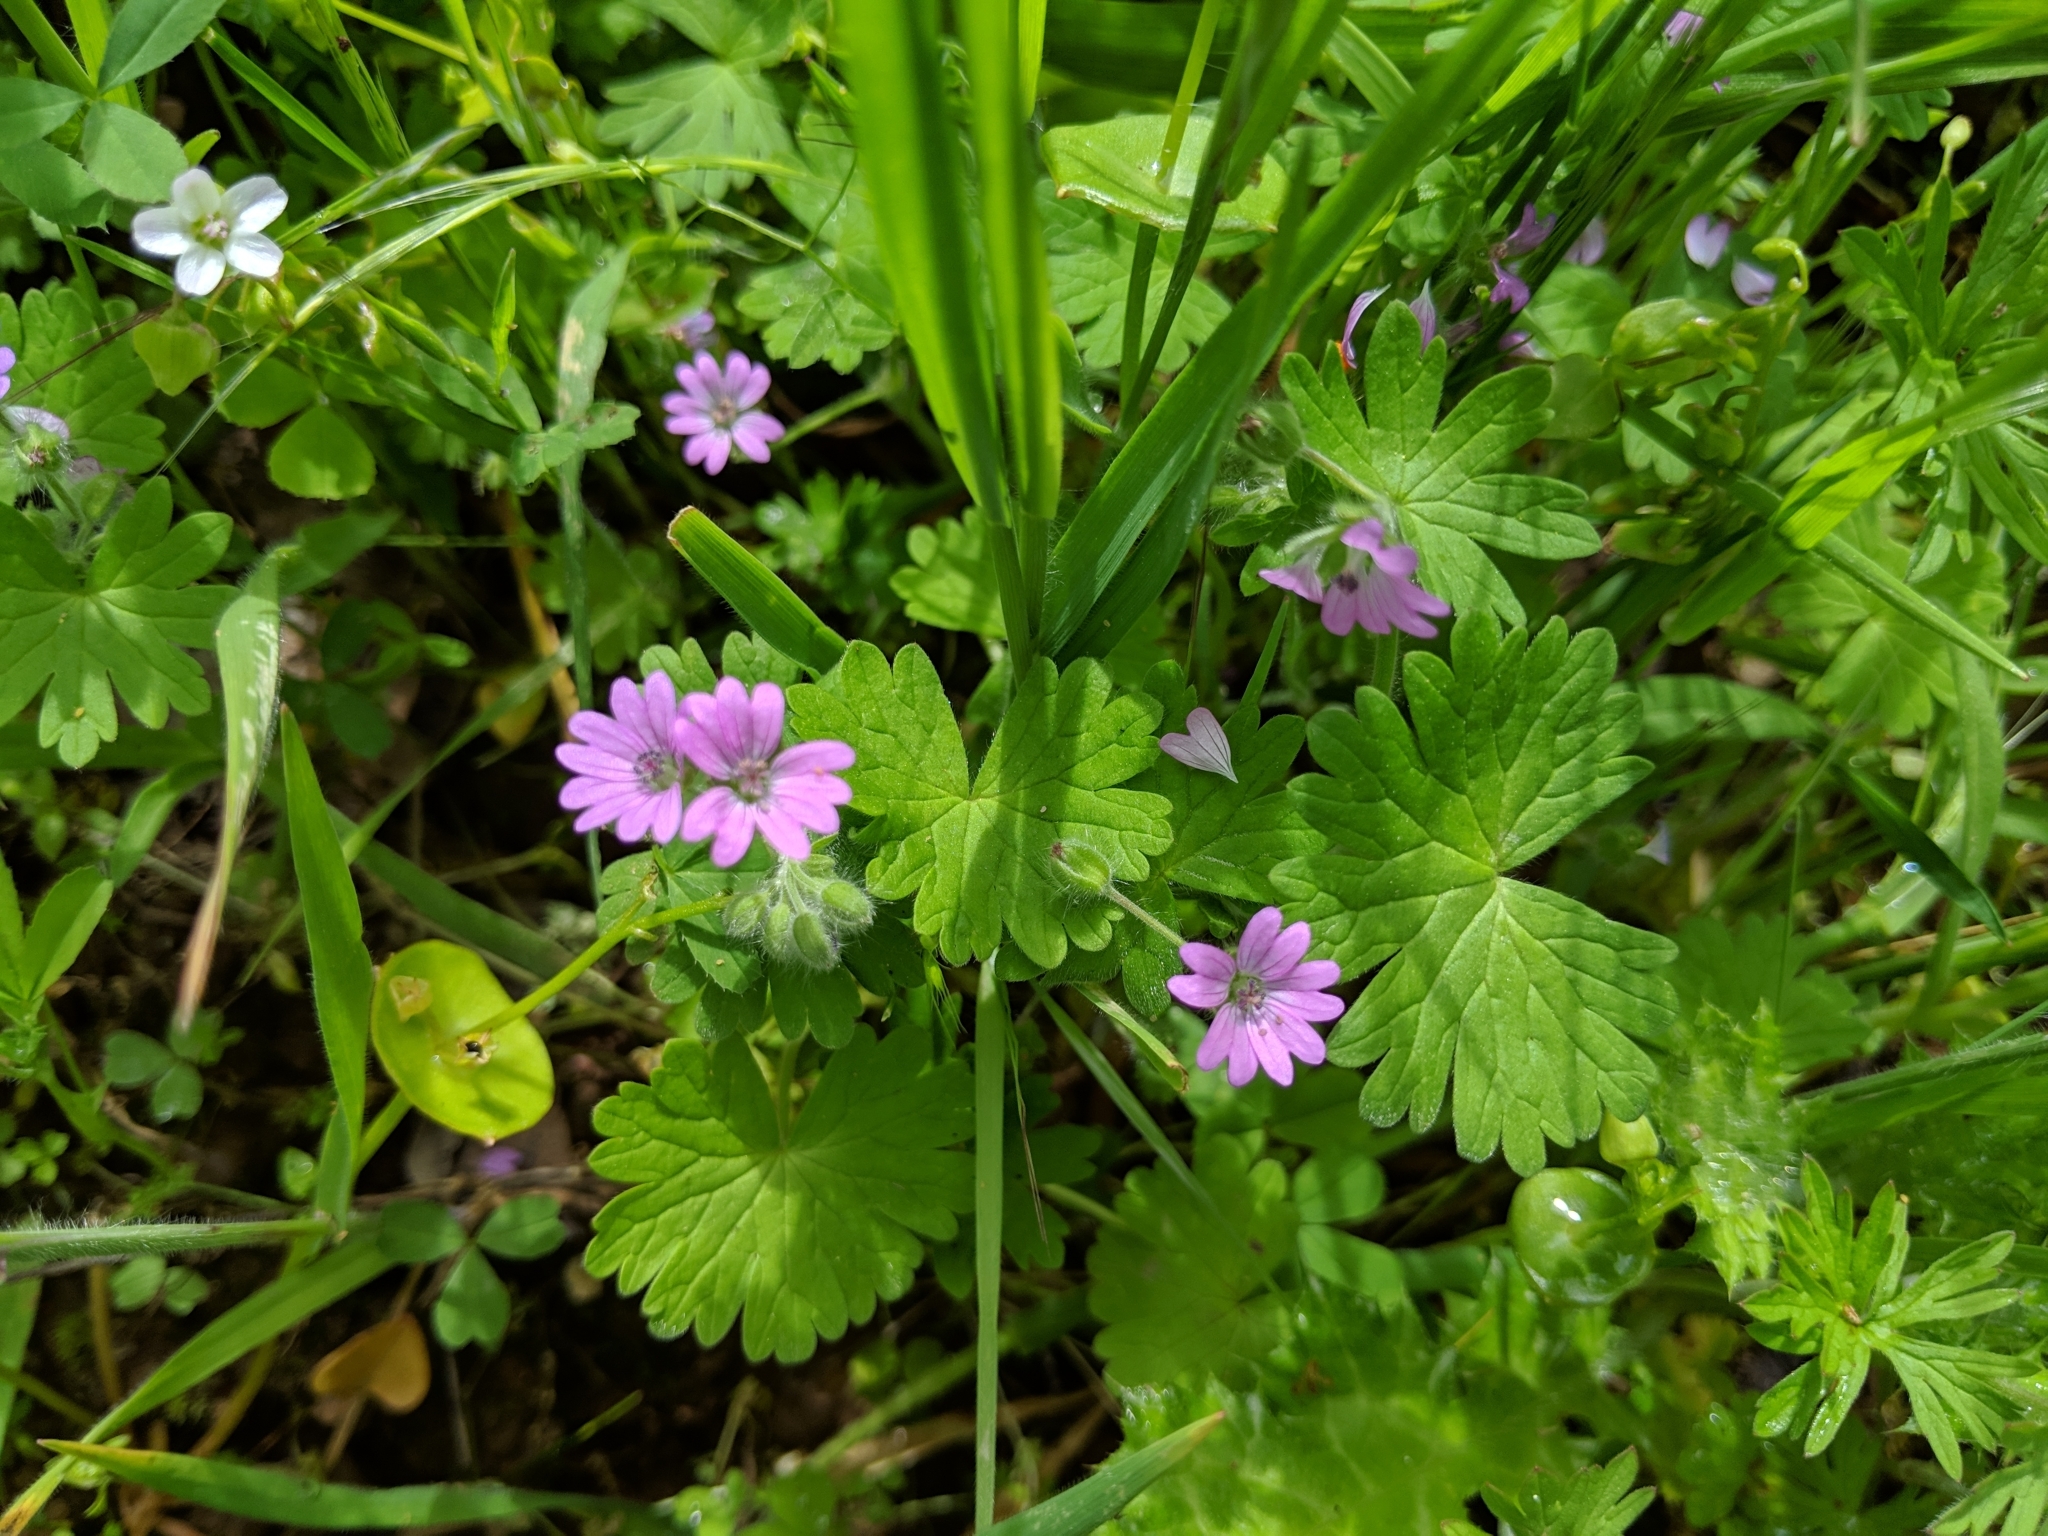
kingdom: Plantae
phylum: Tracheophyta
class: Magnoliopsida
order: Geraniales
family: Geraniaceae
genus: Geranium
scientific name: Geranium molle
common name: Dove's-foot crane's-bill
